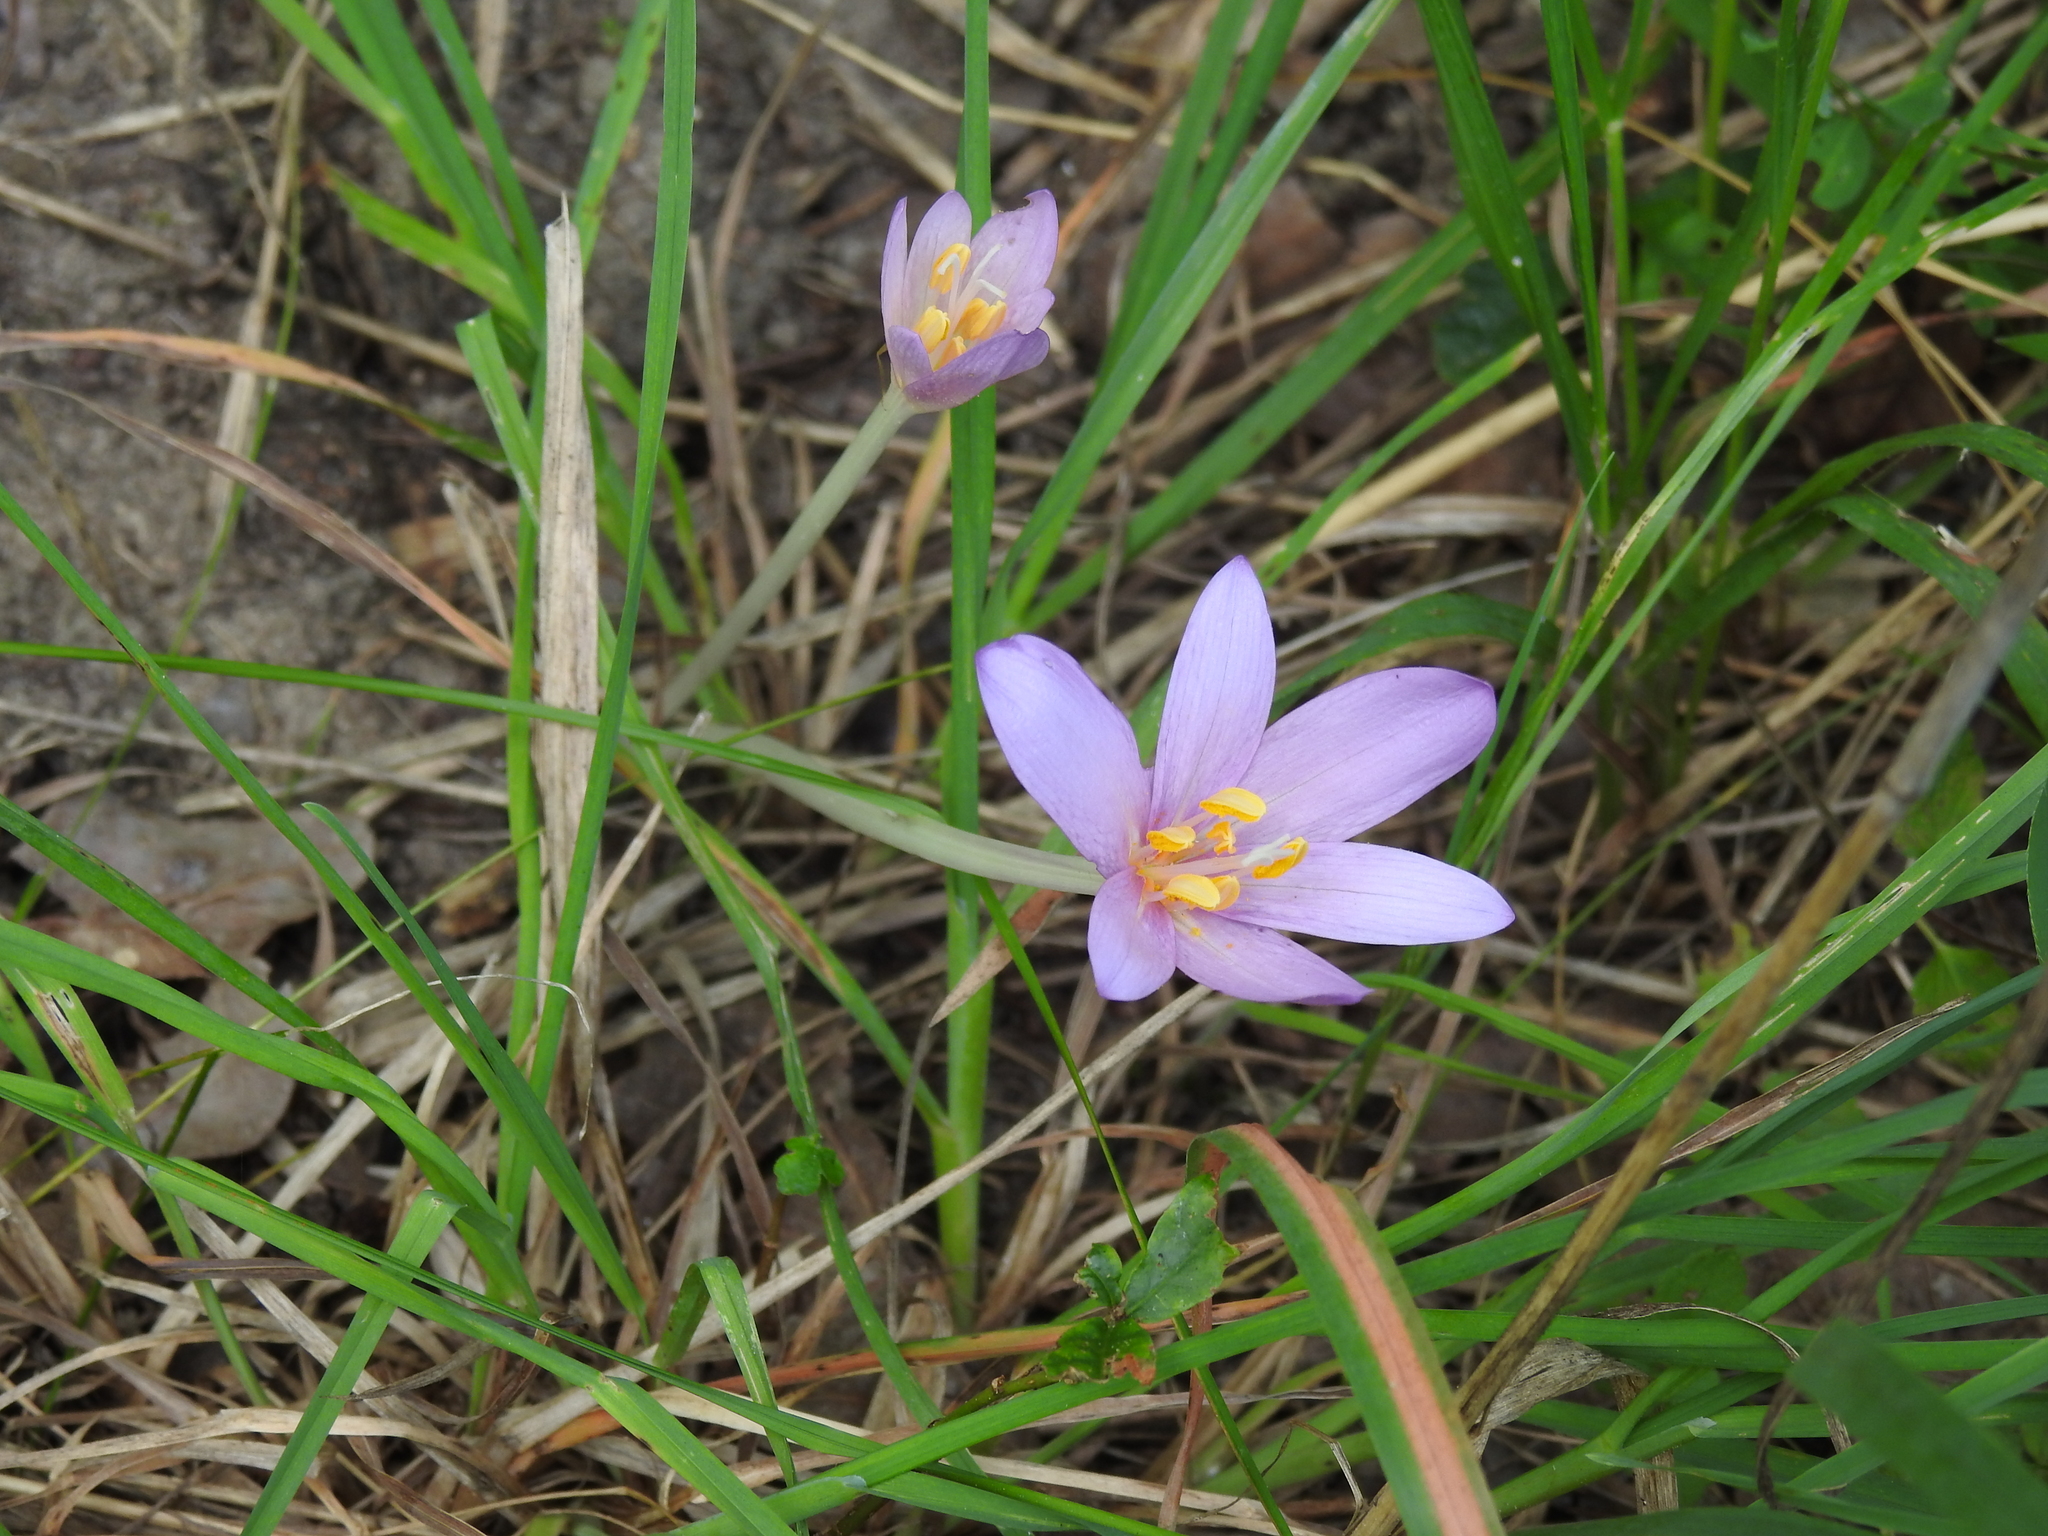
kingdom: Plantae
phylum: Tracheophyta
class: Liliopsida
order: Liliales
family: Colchicaceae
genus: Colchicum
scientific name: Colchicum autumnale
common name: Autumn crocus
